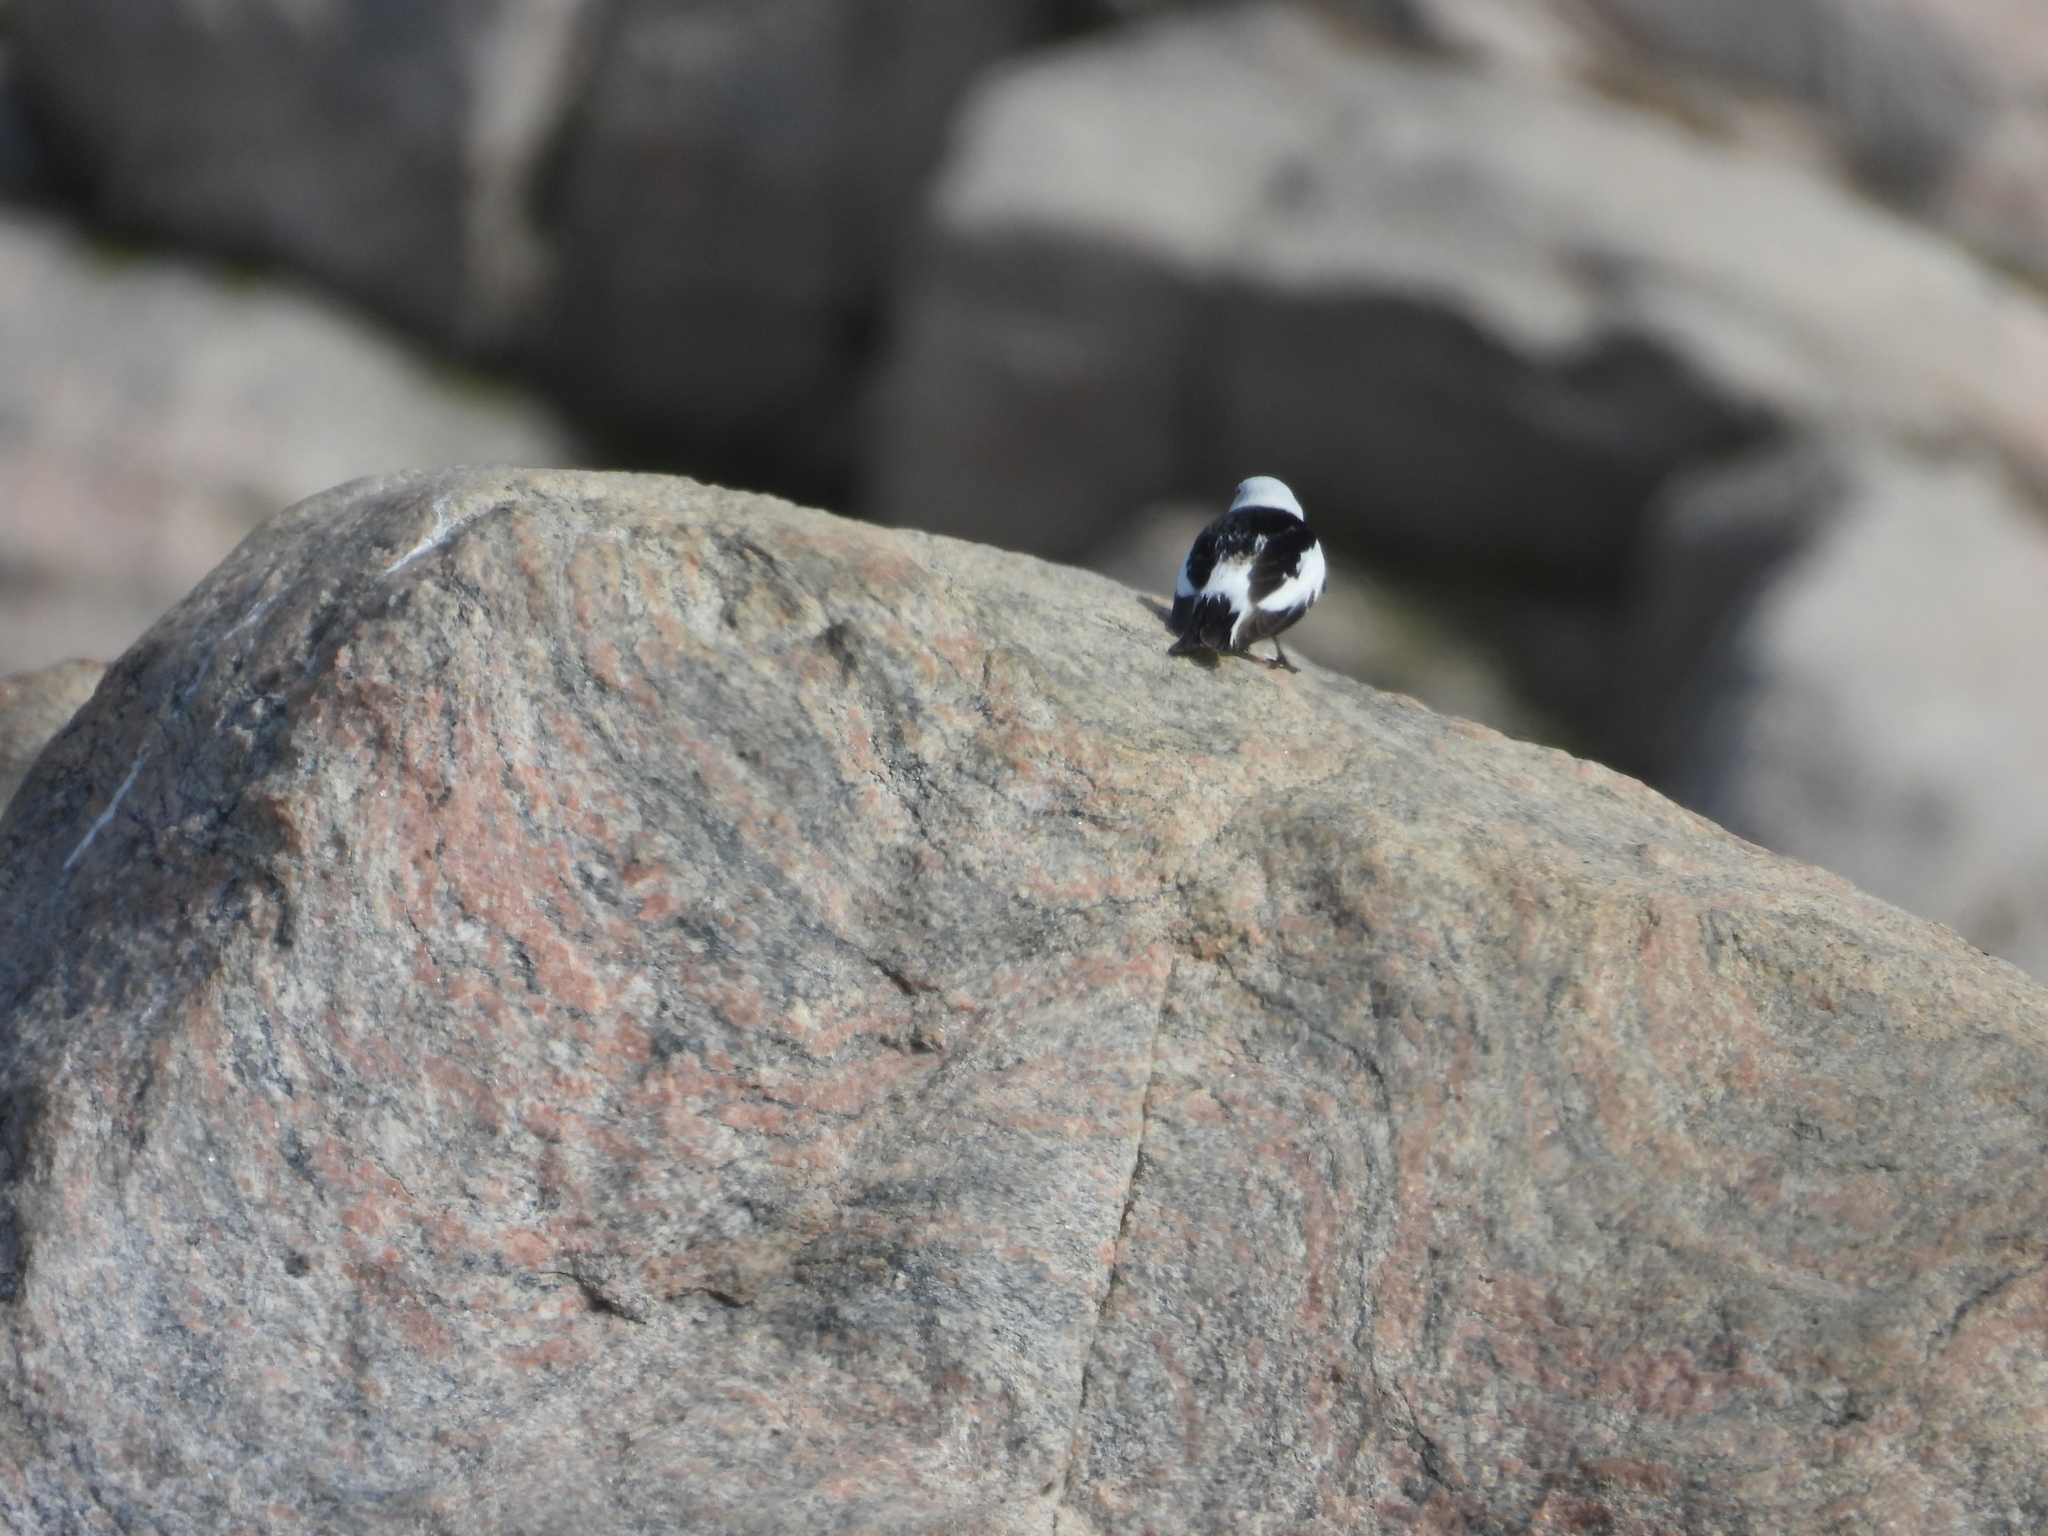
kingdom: Animalia
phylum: Chordata
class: Aves
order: Passeriformes
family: Calcariidae
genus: Plectrophenax
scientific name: Plectrophenax nivalis
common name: Snow bunting
